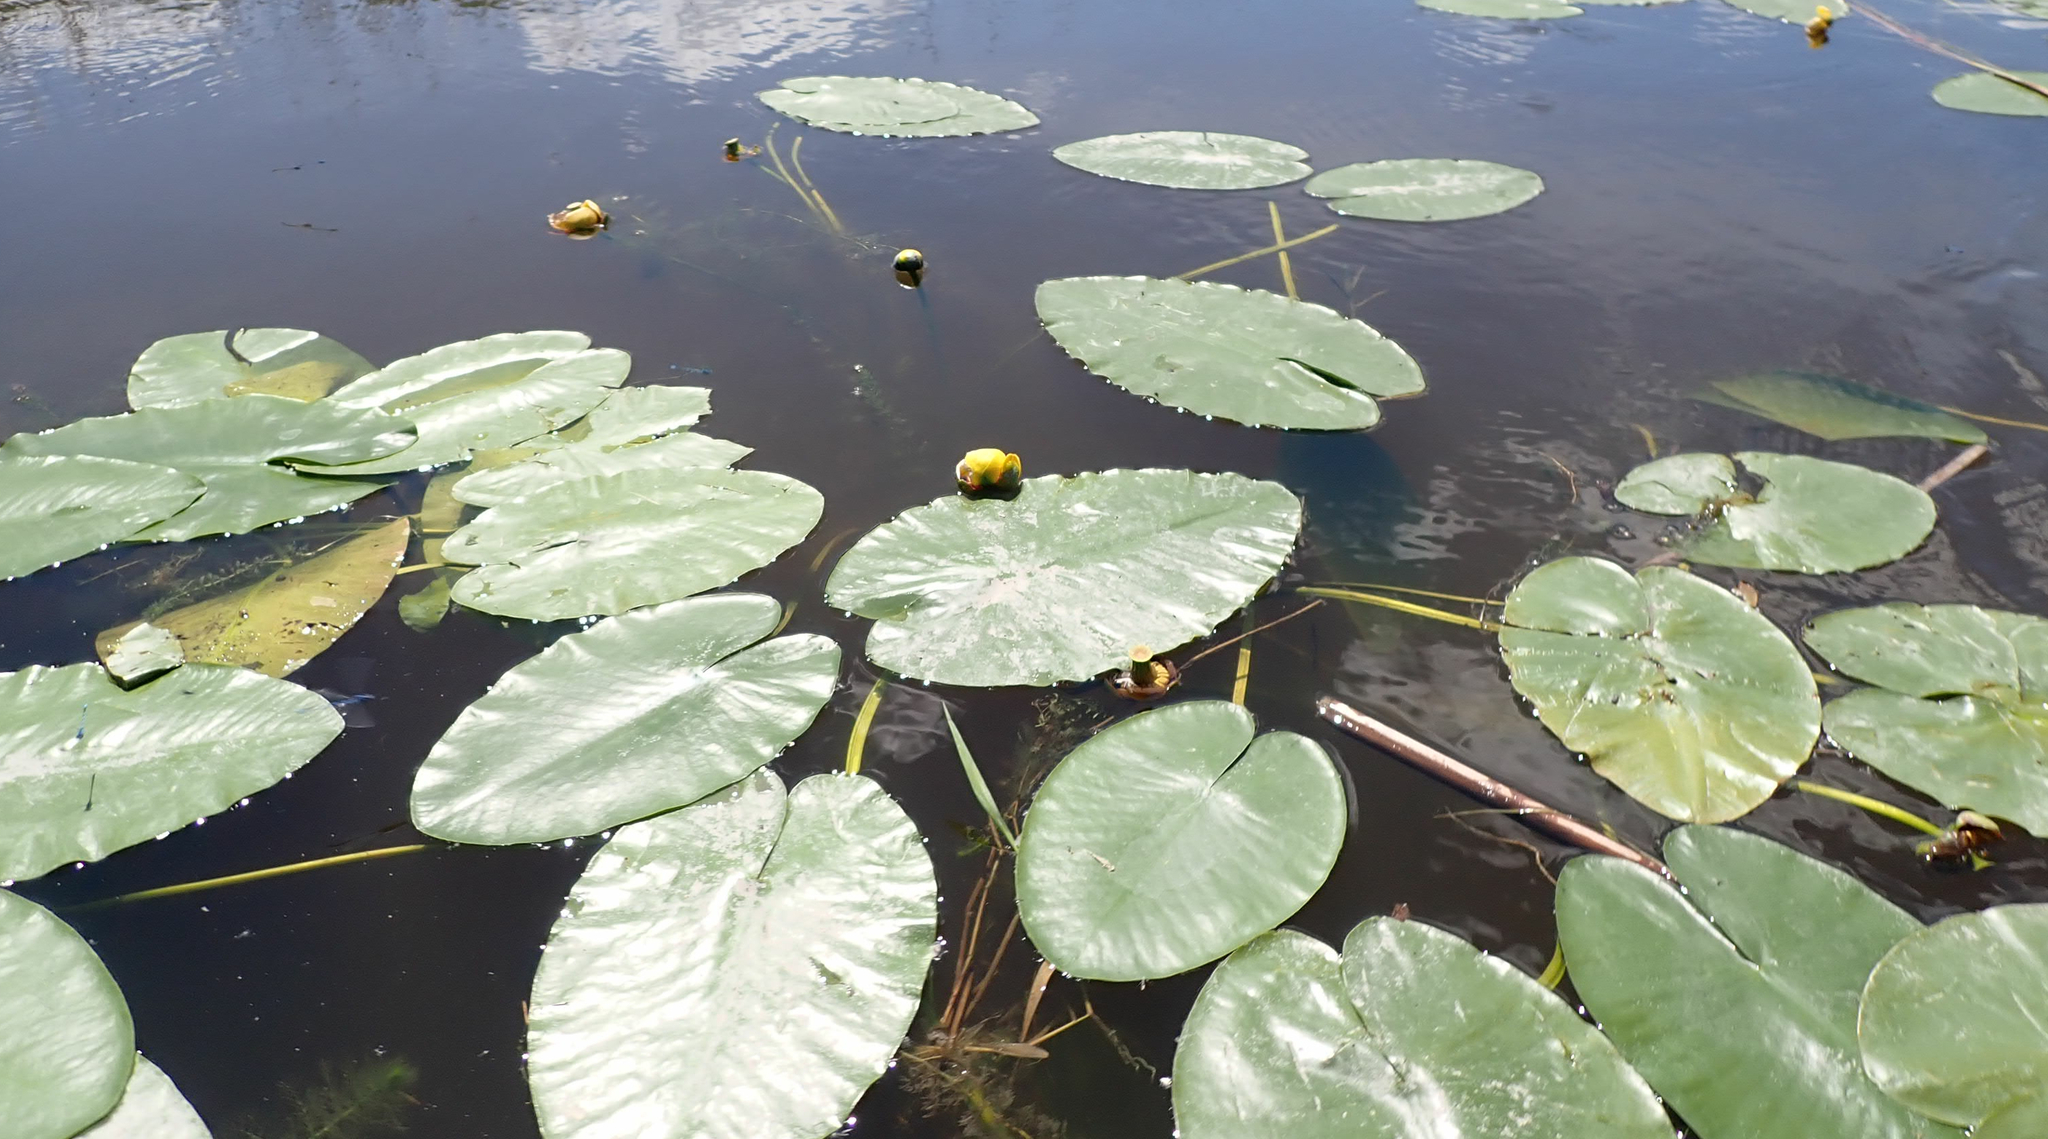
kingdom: Plantae
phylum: Tracheophyta
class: Magnoliopsida
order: Nymphaeales
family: Nymphaeaceae
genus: Nuphar
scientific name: Nuphar variegata
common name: Beaver-root
